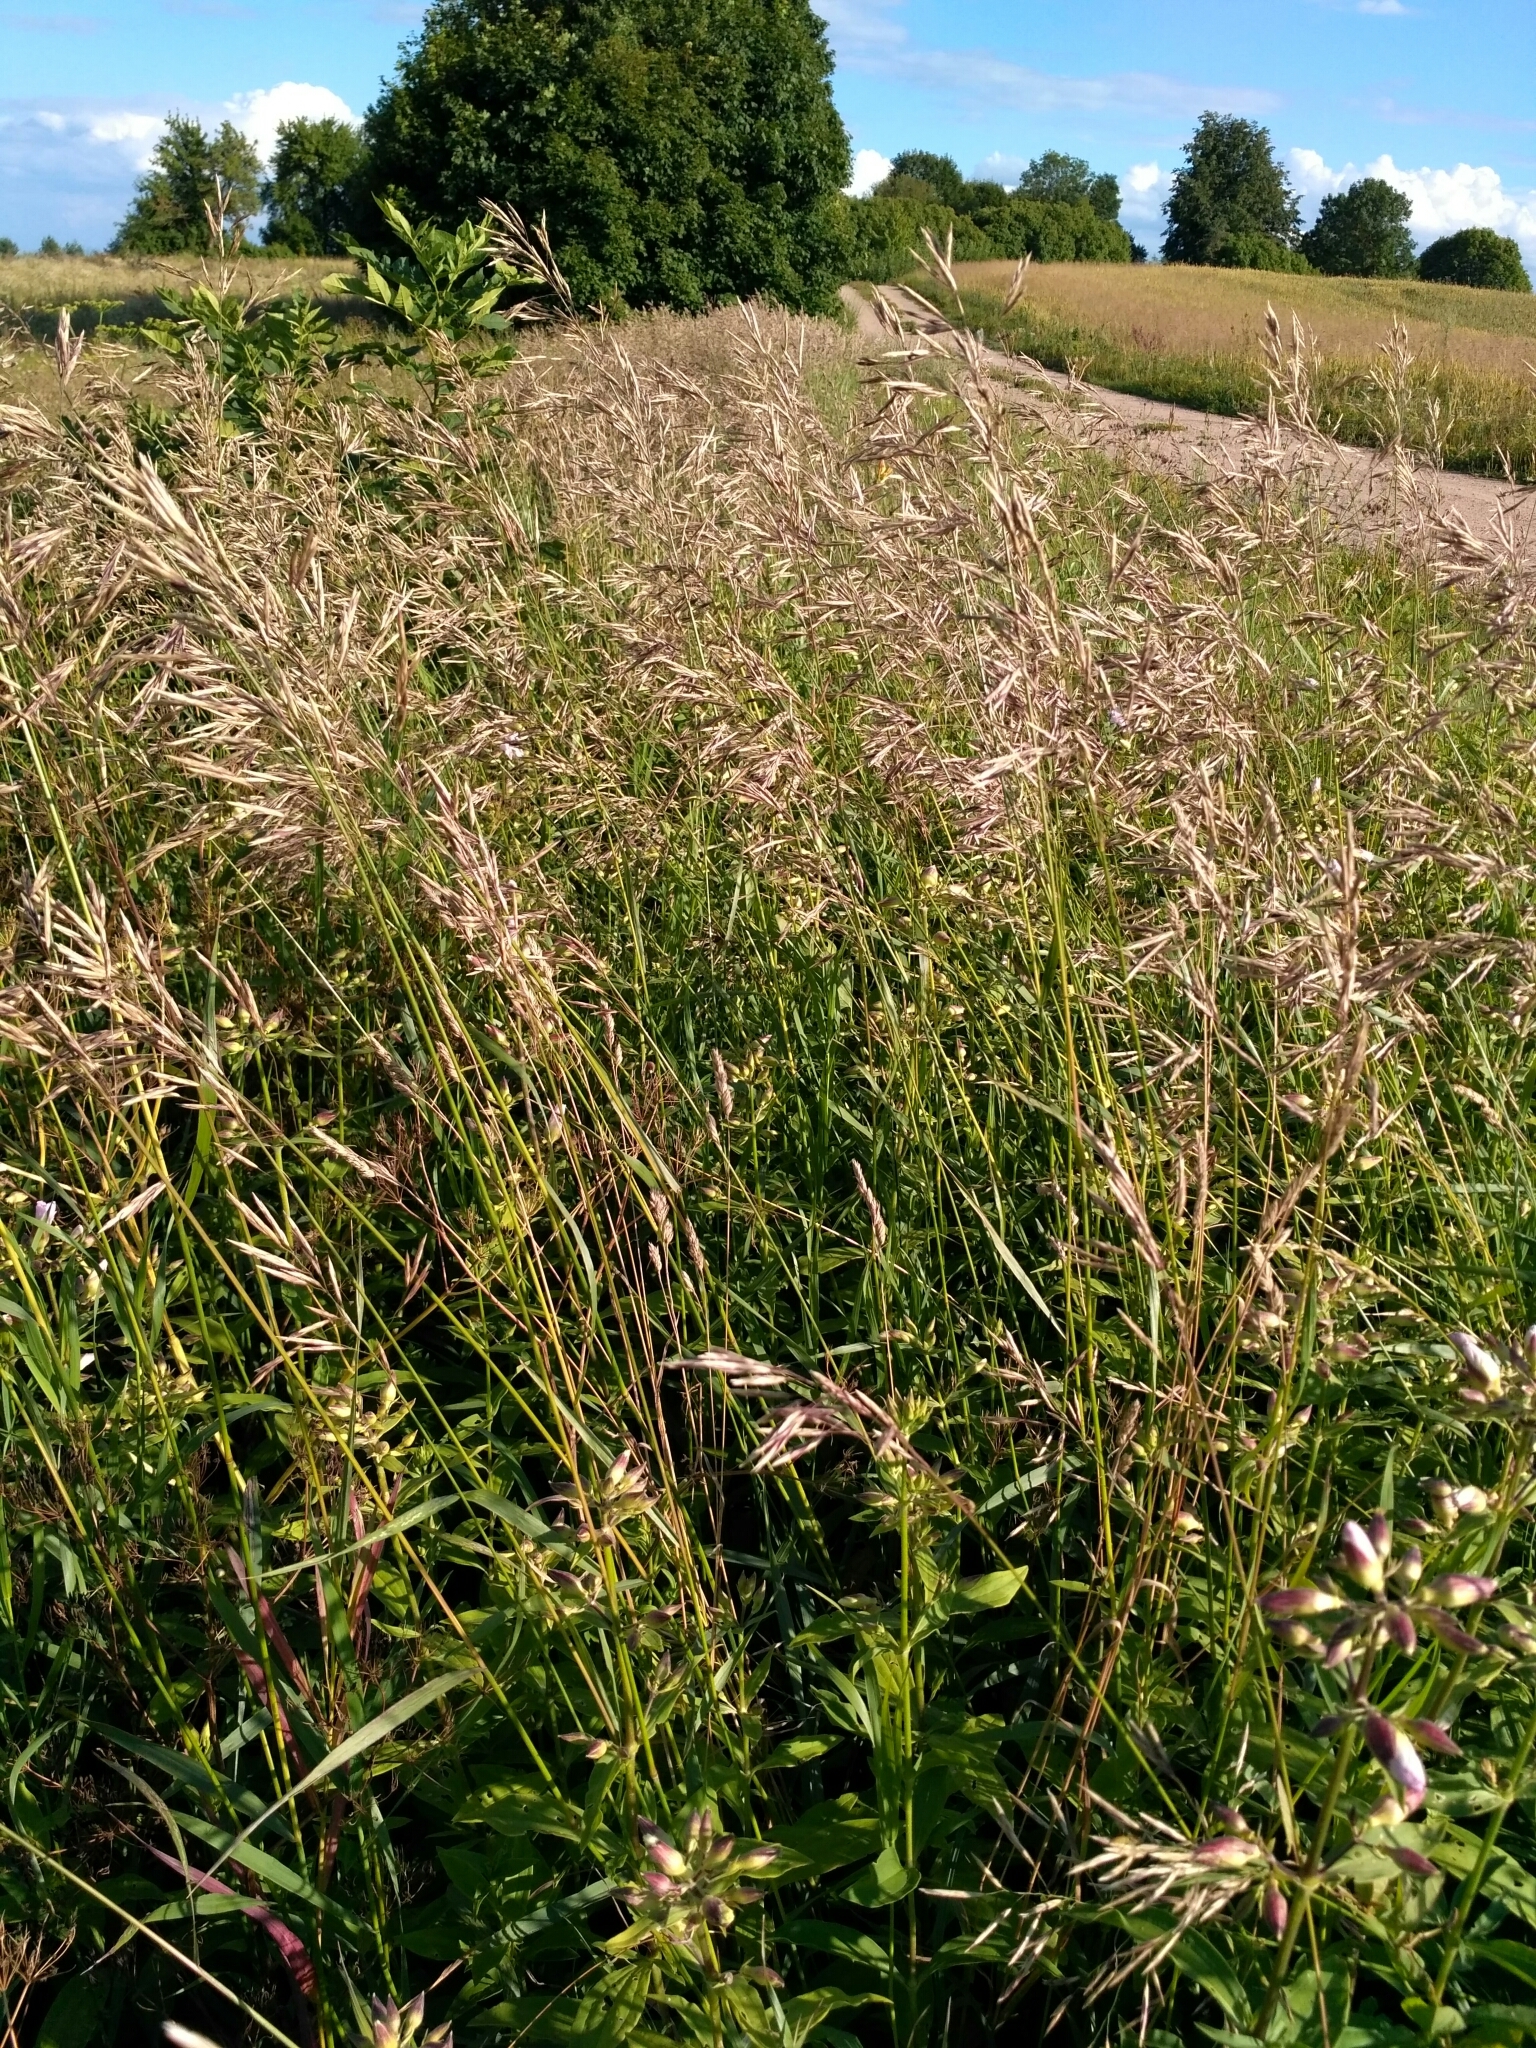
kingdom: Plantae
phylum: Tracheophyta
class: Liliopsida
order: Poales
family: Poaceae
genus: Bromus
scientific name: Bromus inermis
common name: Smooth brome
